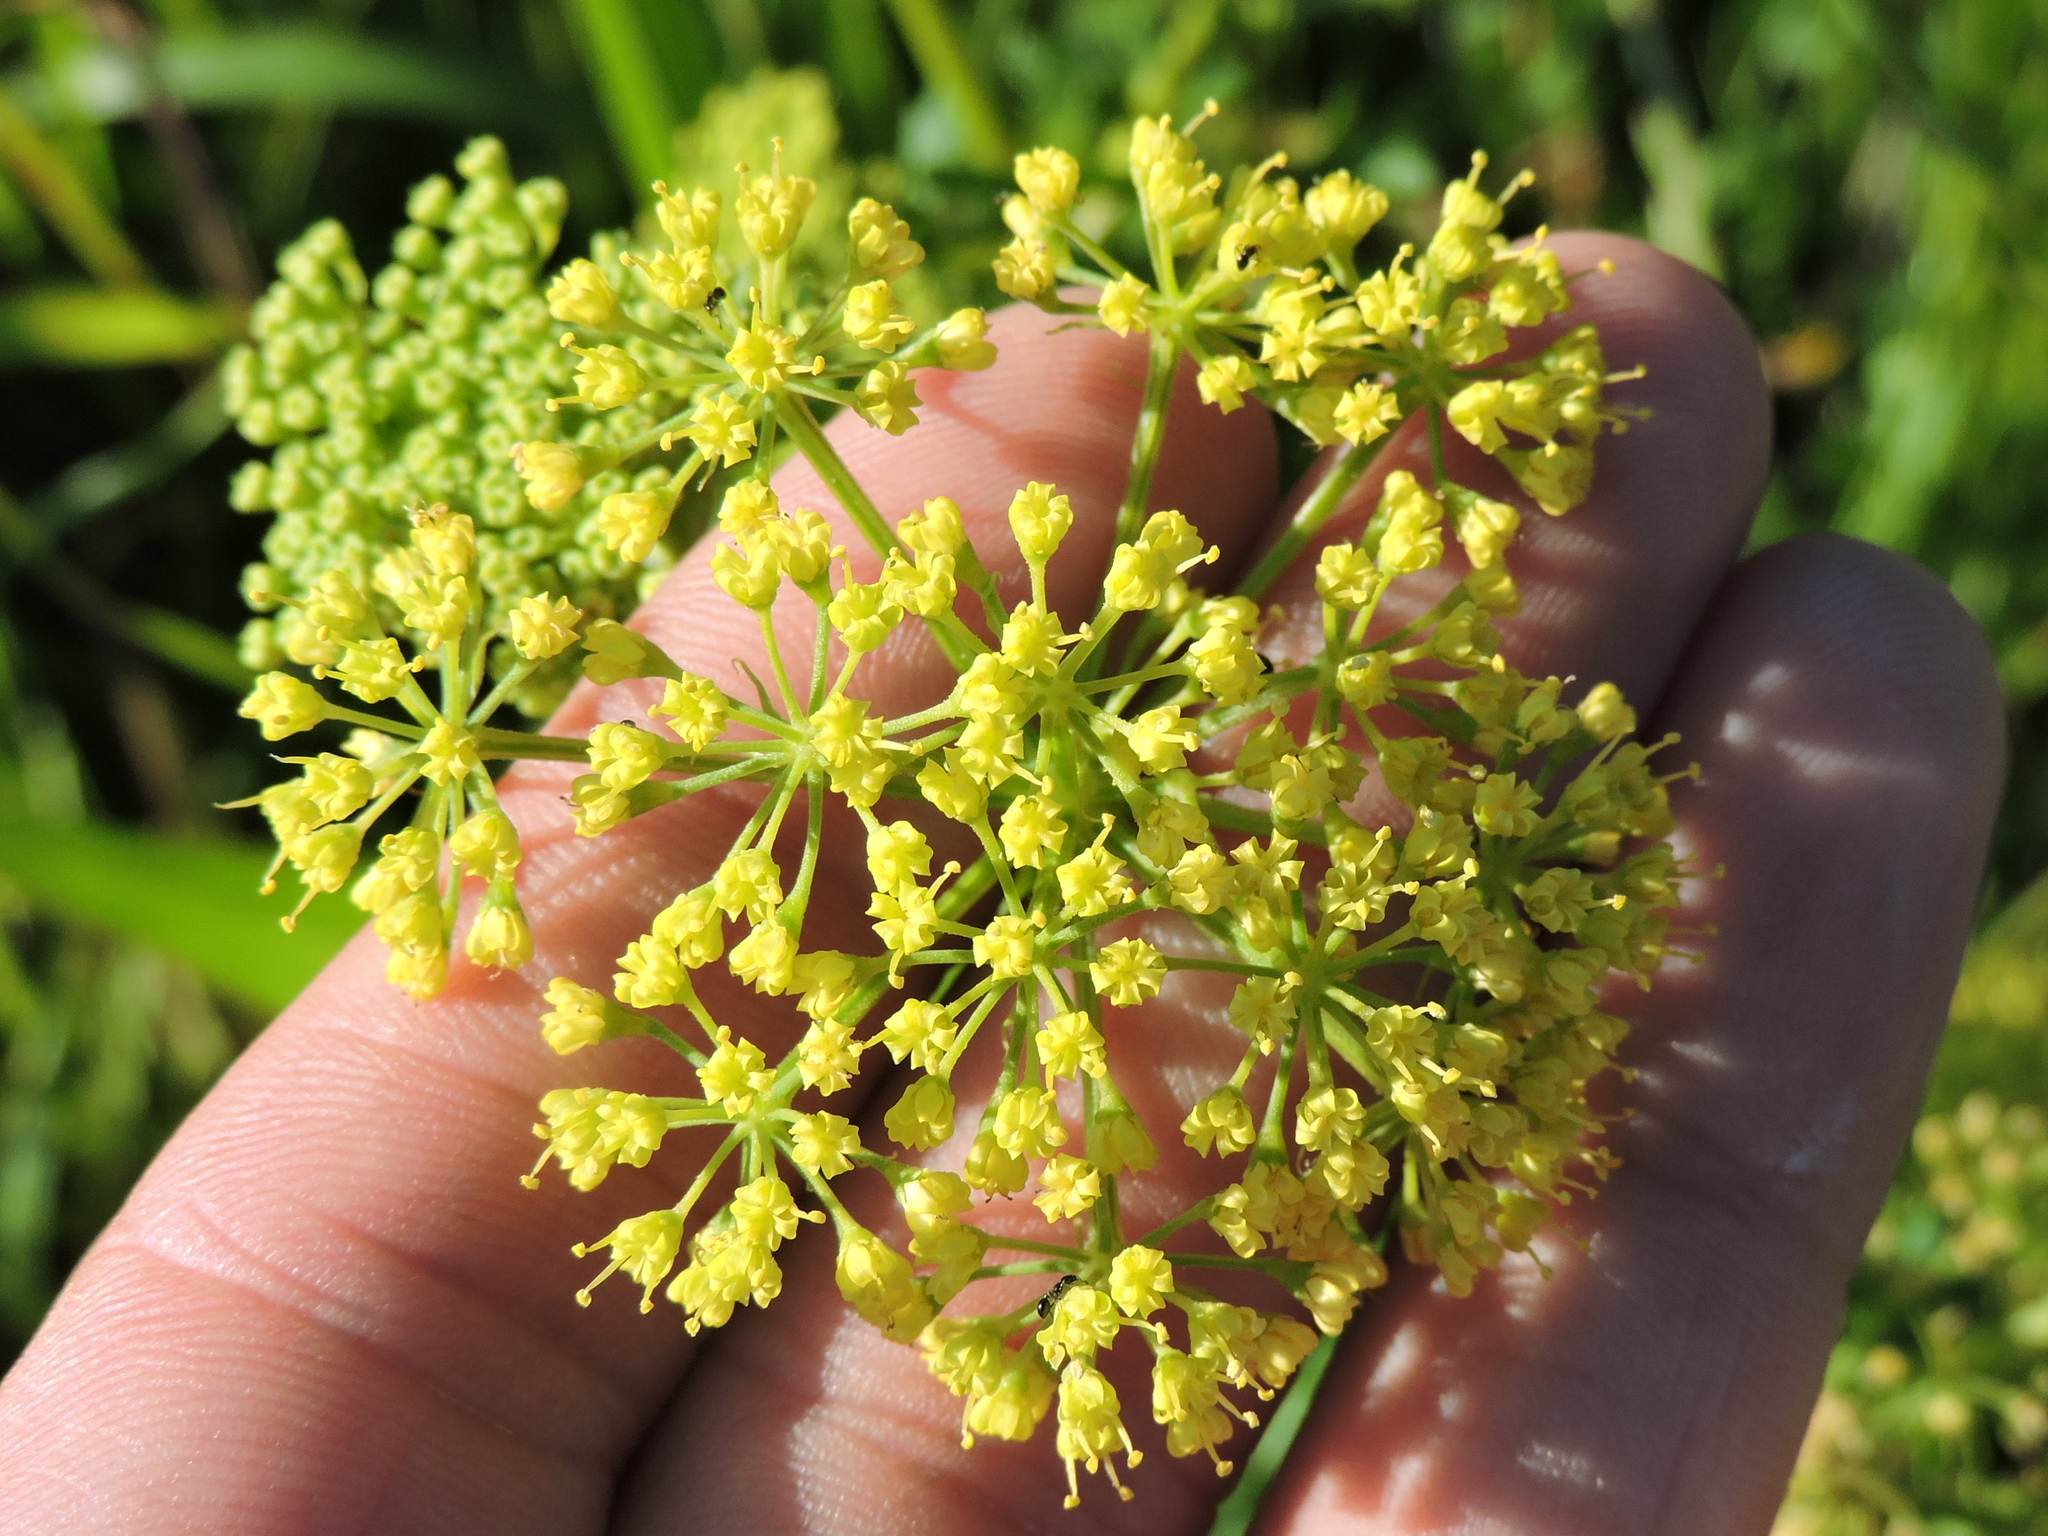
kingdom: Plantae
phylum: Tracheophyta
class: Magnoliopsida
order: Apiales
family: Apiaceae
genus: Polytaenia
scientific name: Polytaenia texana
